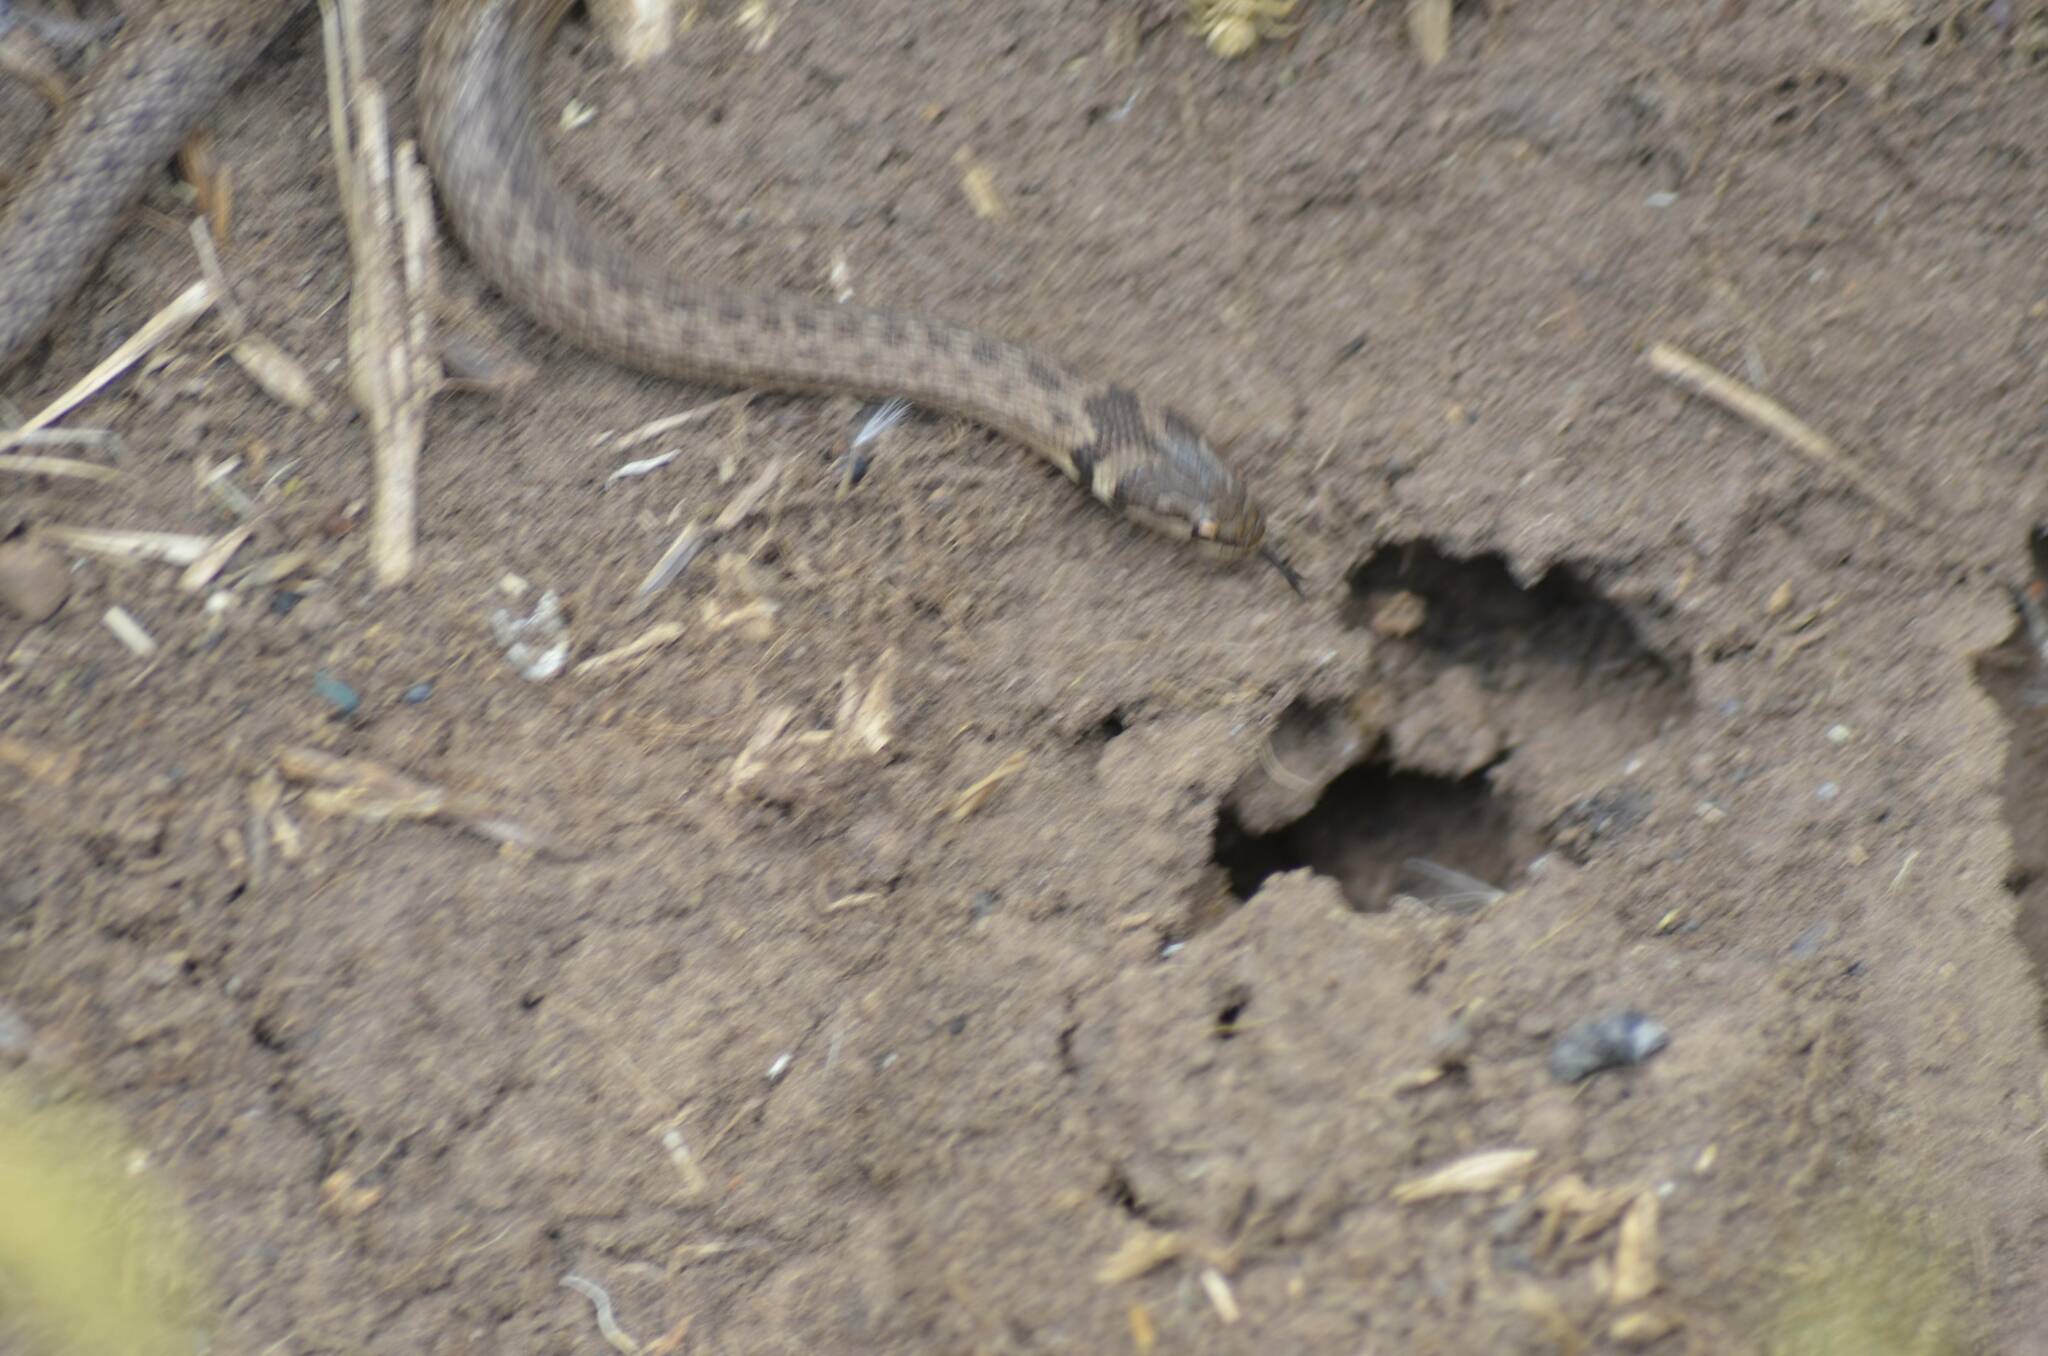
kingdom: Animalia
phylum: Chordata
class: Squamata
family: Colubridae
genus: Macroprotodon
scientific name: Macroprotodon mauritanicus
